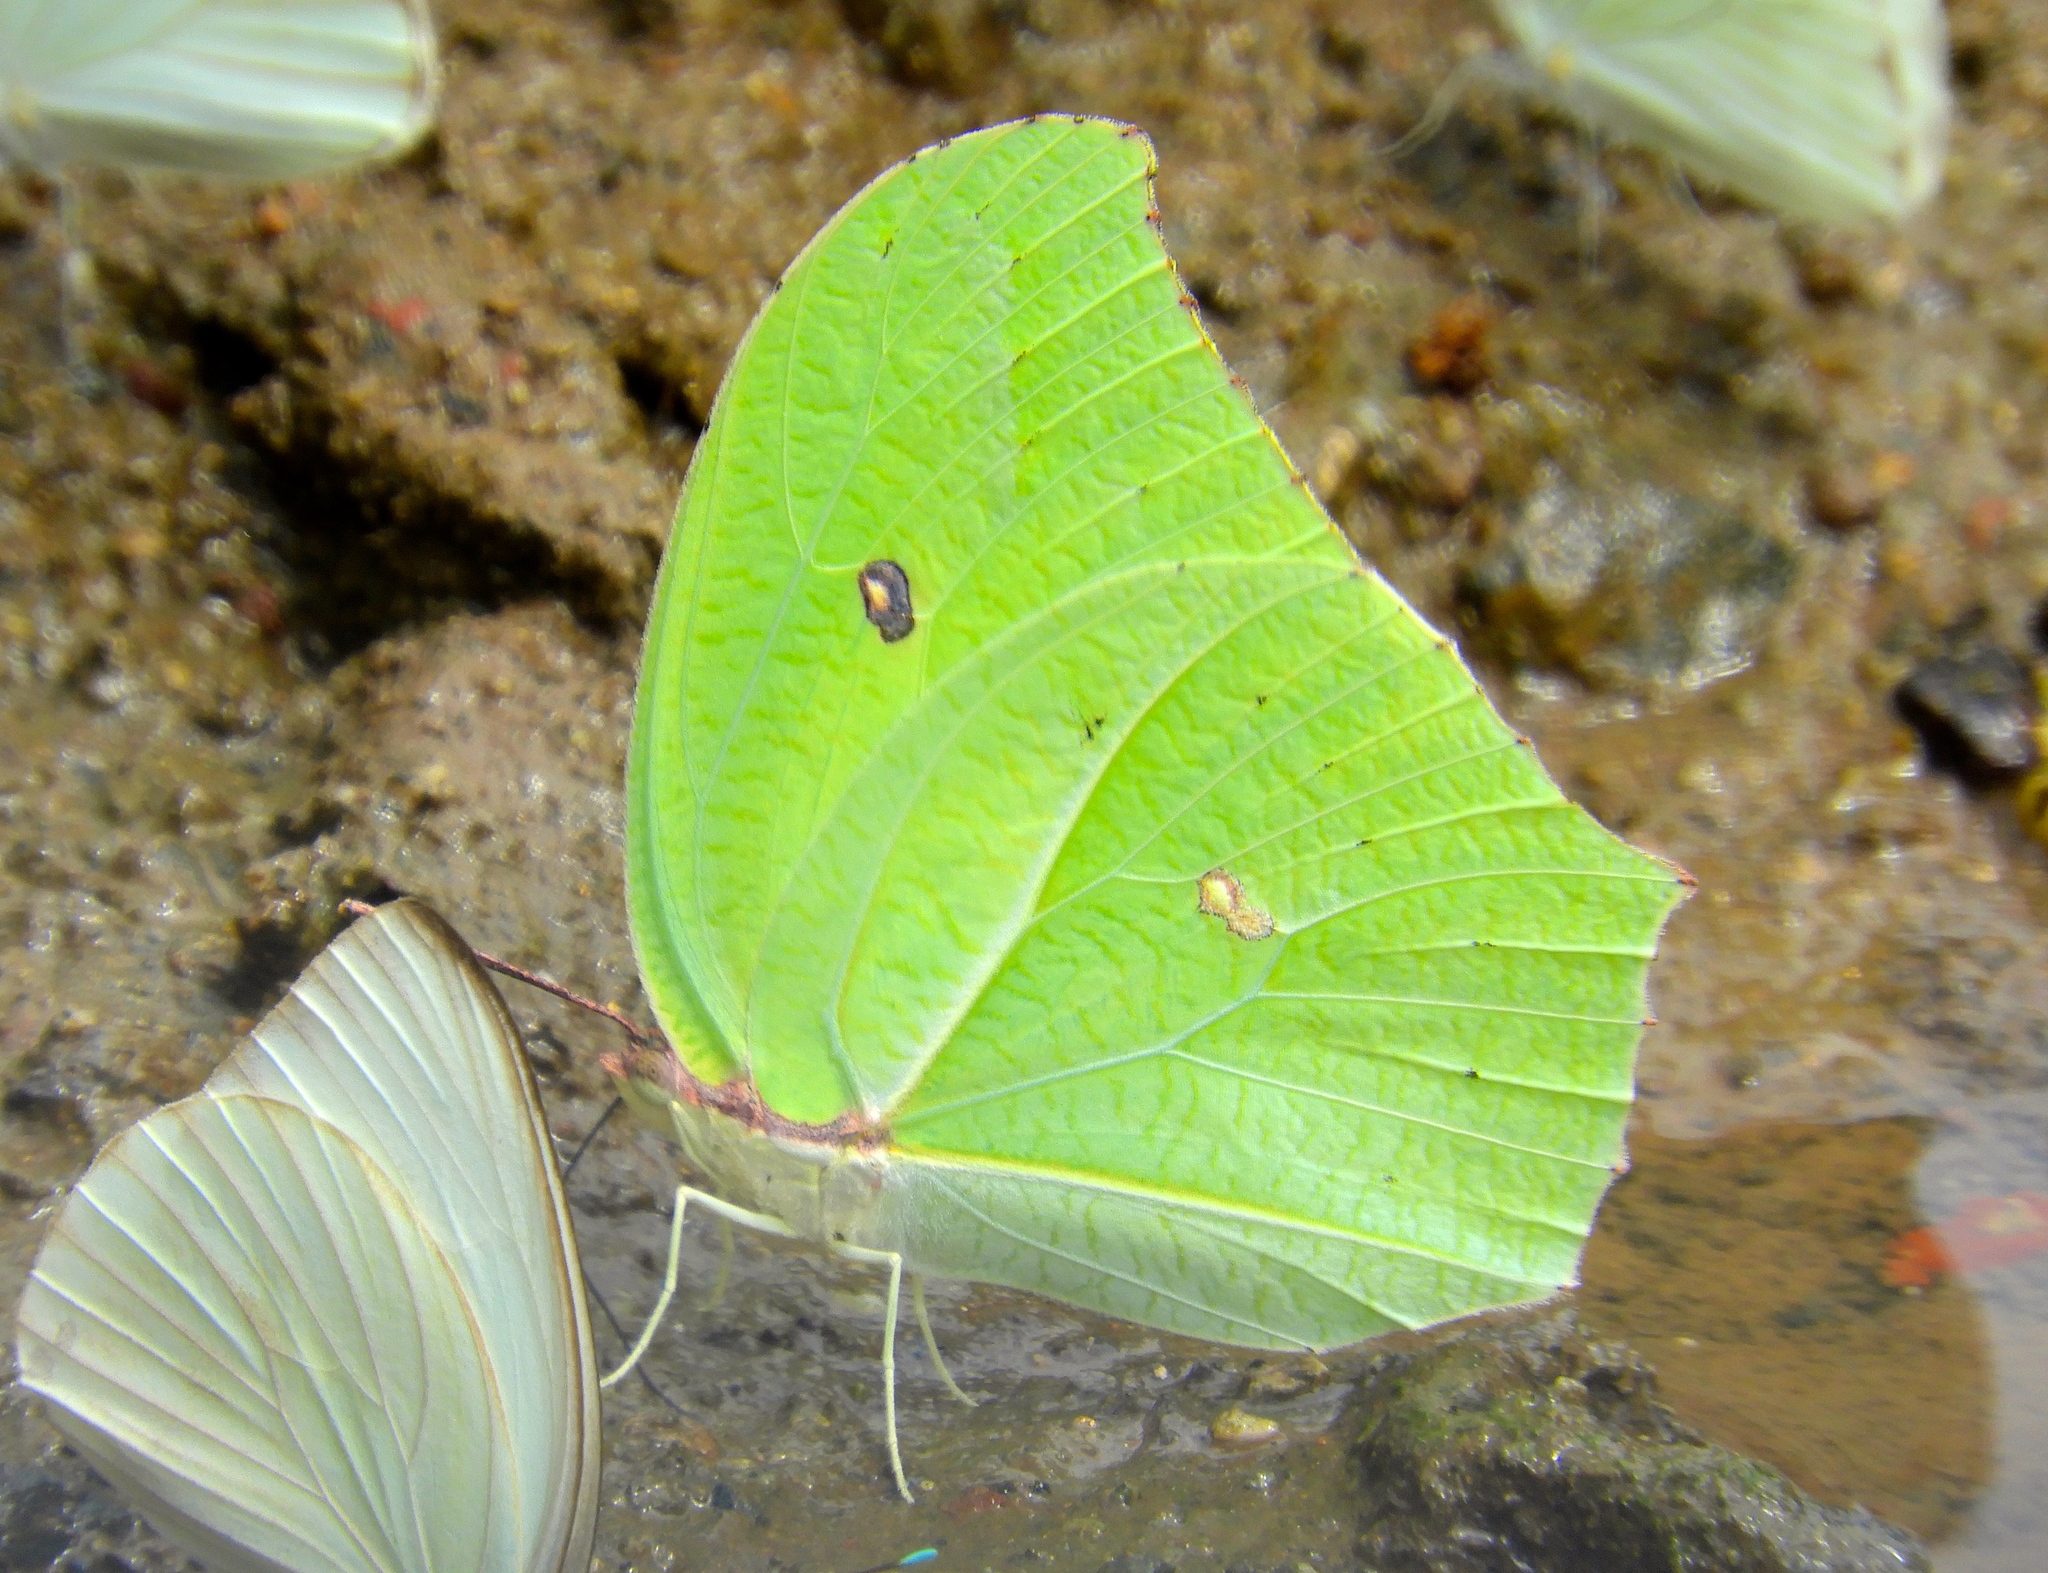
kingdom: Animalia
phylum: Arthropoda
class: Insecta
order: Lepidoptera
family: Pieridae
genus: Anteos
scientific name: Anteos maerula
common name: Angled sulphur
